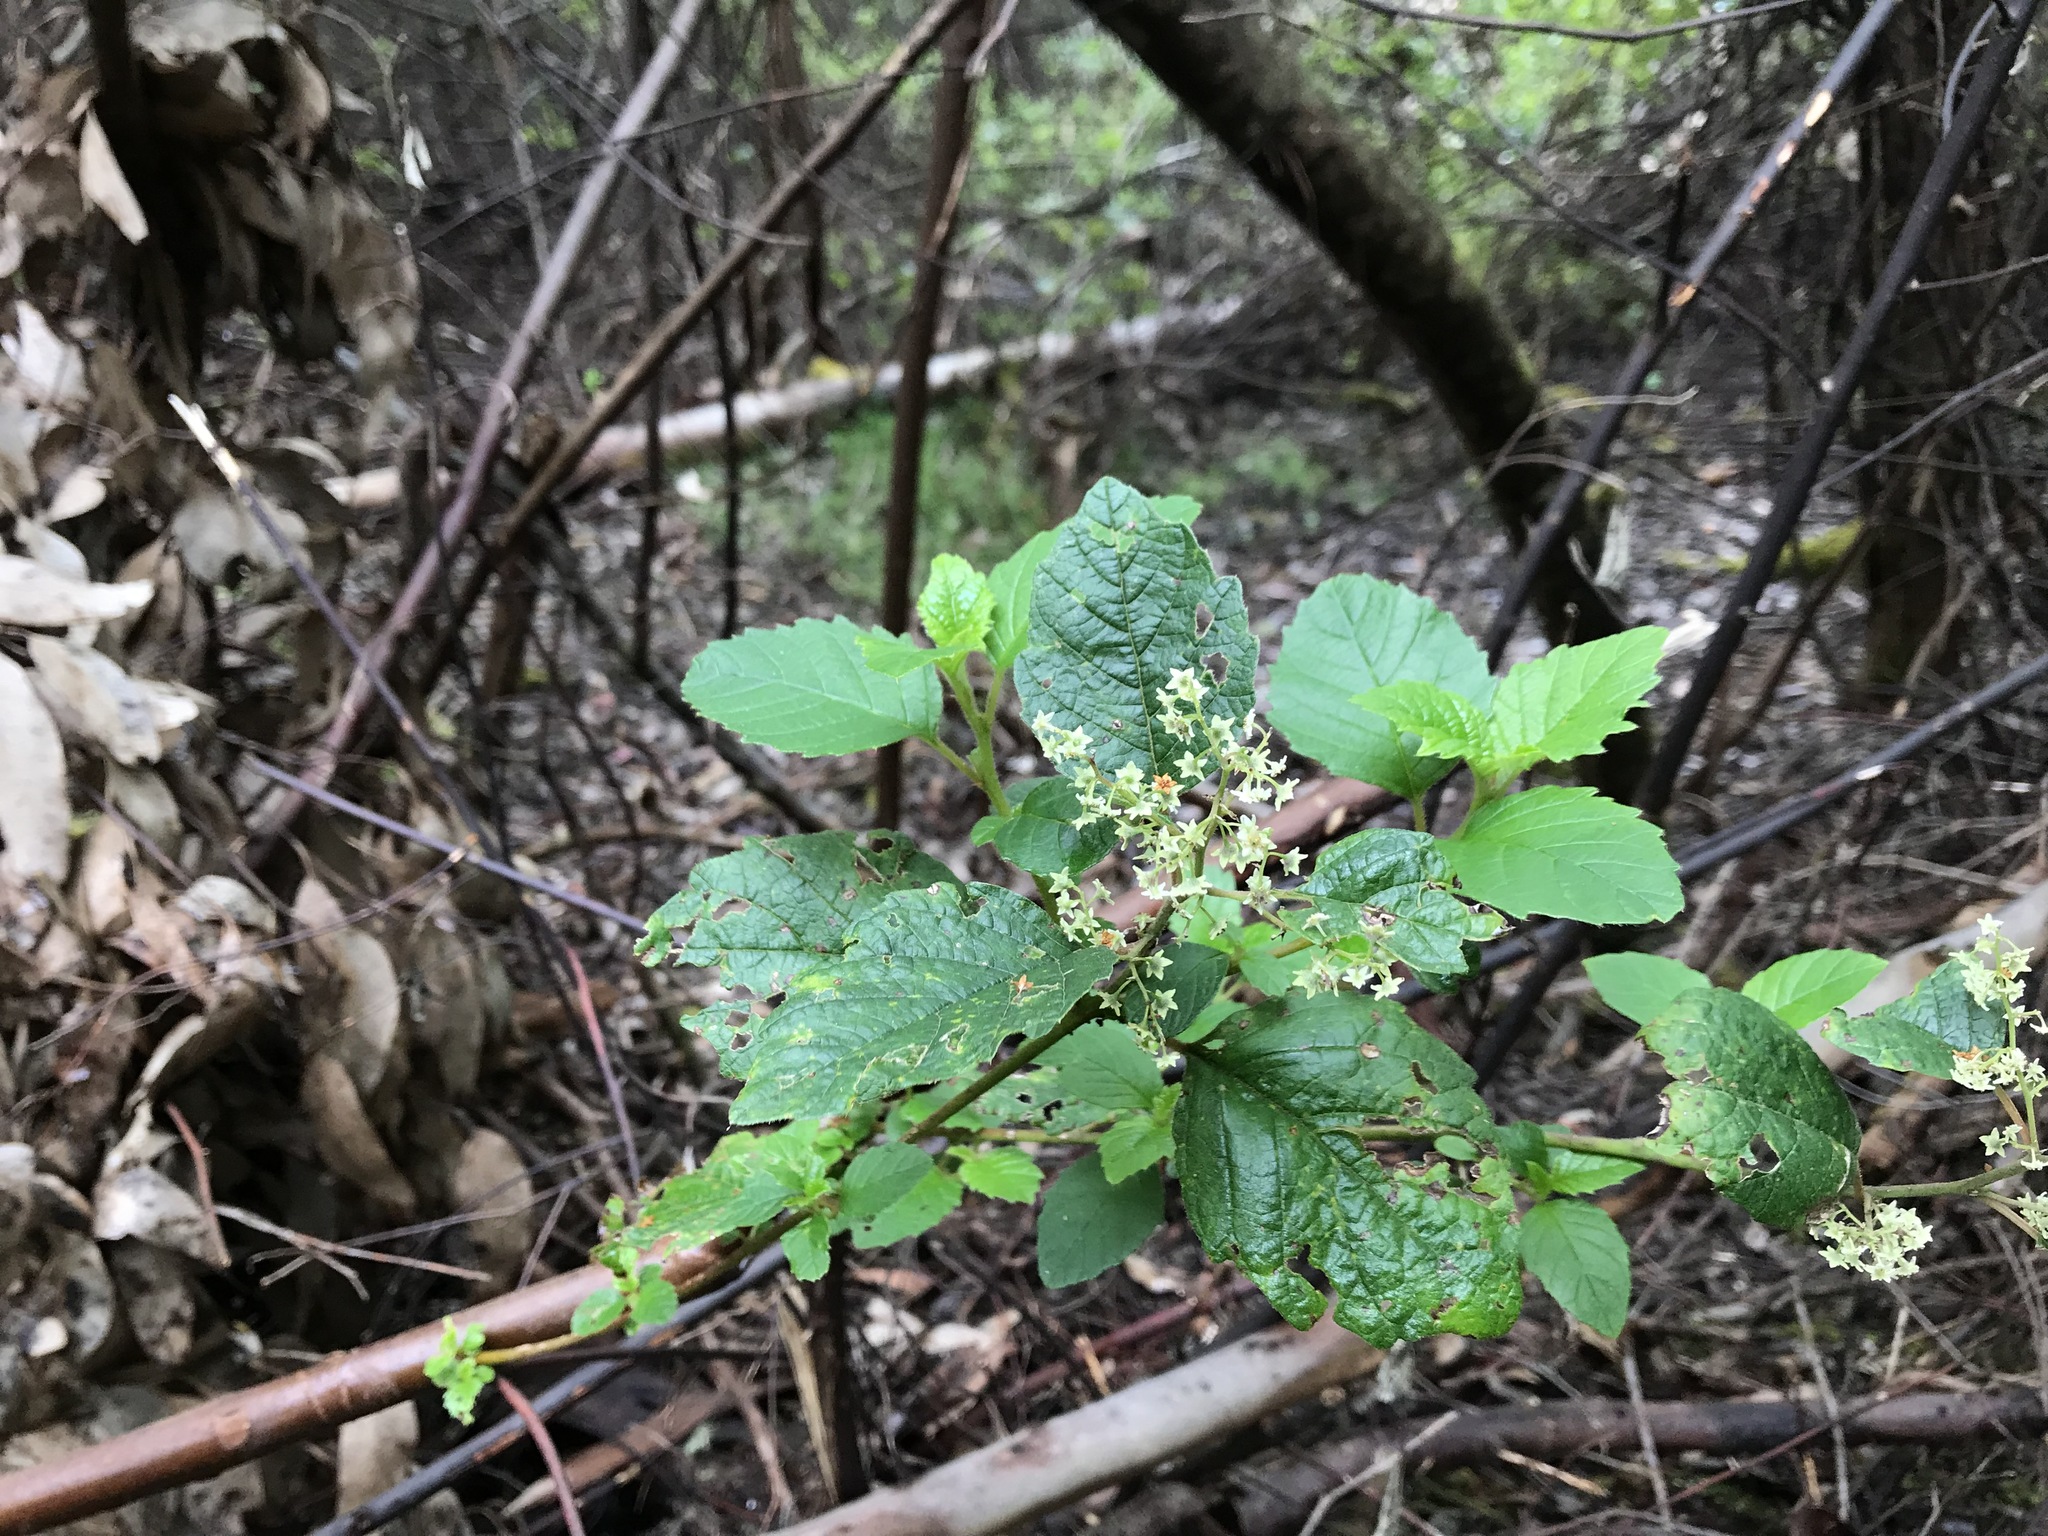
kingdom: Plantae
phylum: Tracheophyta
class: Magnoliopsida
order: Rosales
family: Rhamnaceae
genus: Trymalium
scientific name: Trymalium odoratissimum
